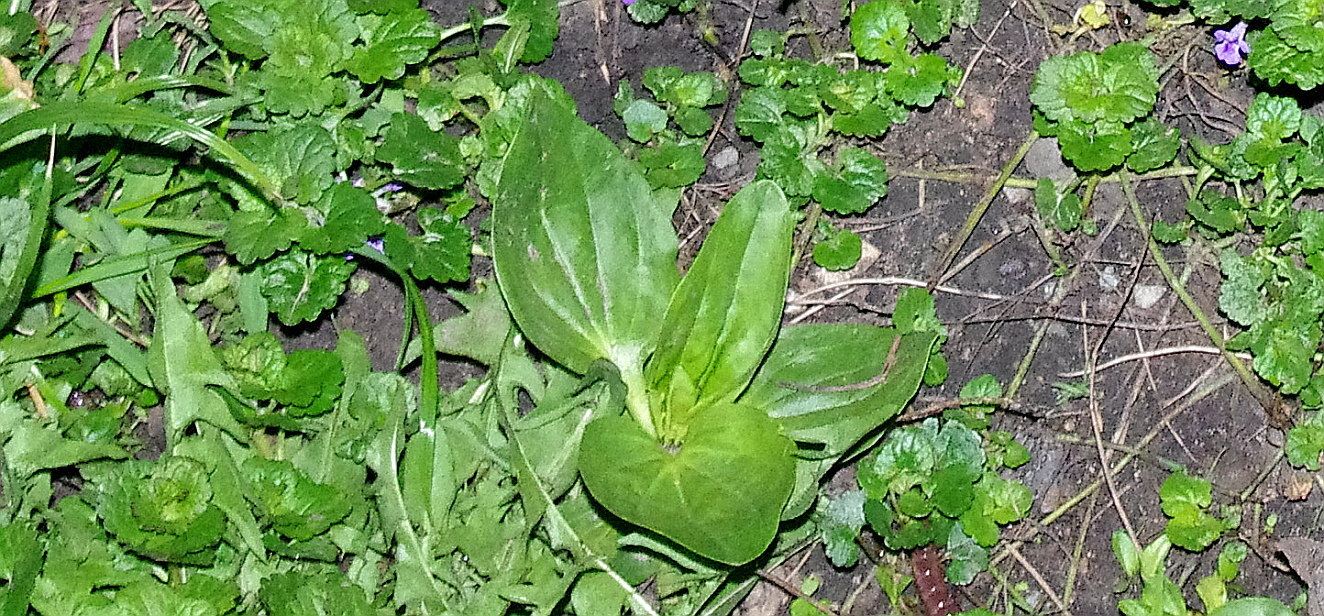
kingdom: Plantae
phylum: Tracheophyta
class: Magnoliopsida
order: Lamiales
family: Plantaginaceae
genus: Plantago
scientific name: Plantago major
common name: Common plantain
